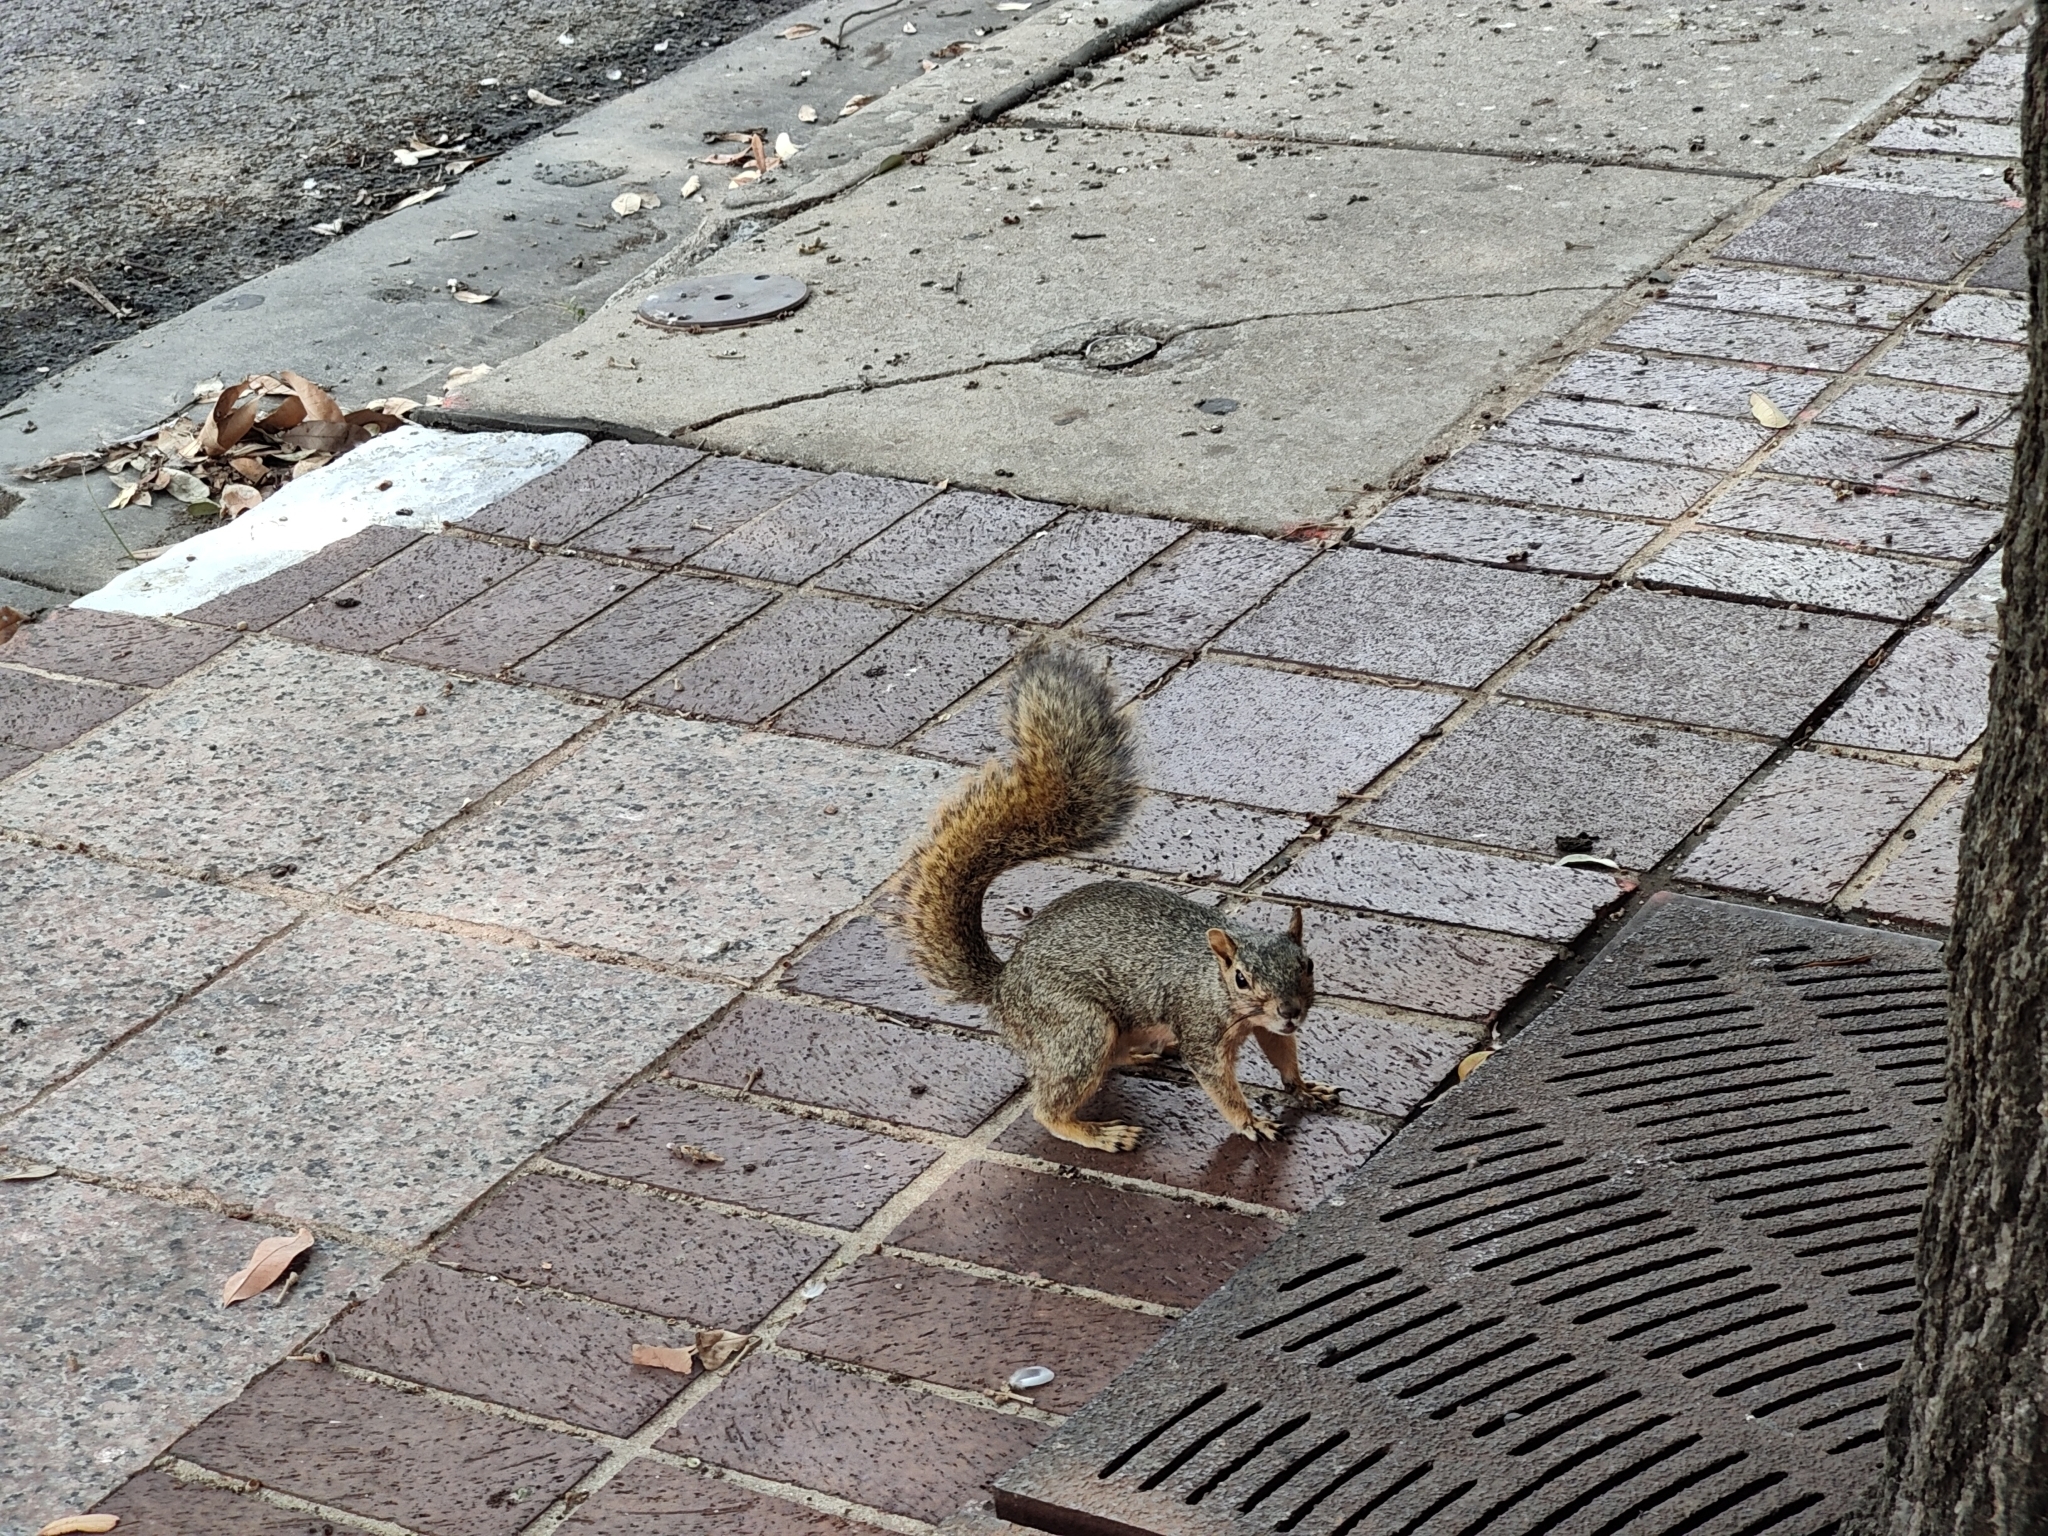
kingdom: Animalia
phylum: Chordata
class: Mammalia
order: Rodentia
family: Sciuridae
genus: Sciurus
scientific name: Sciurus niger
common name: Fox squirrel
